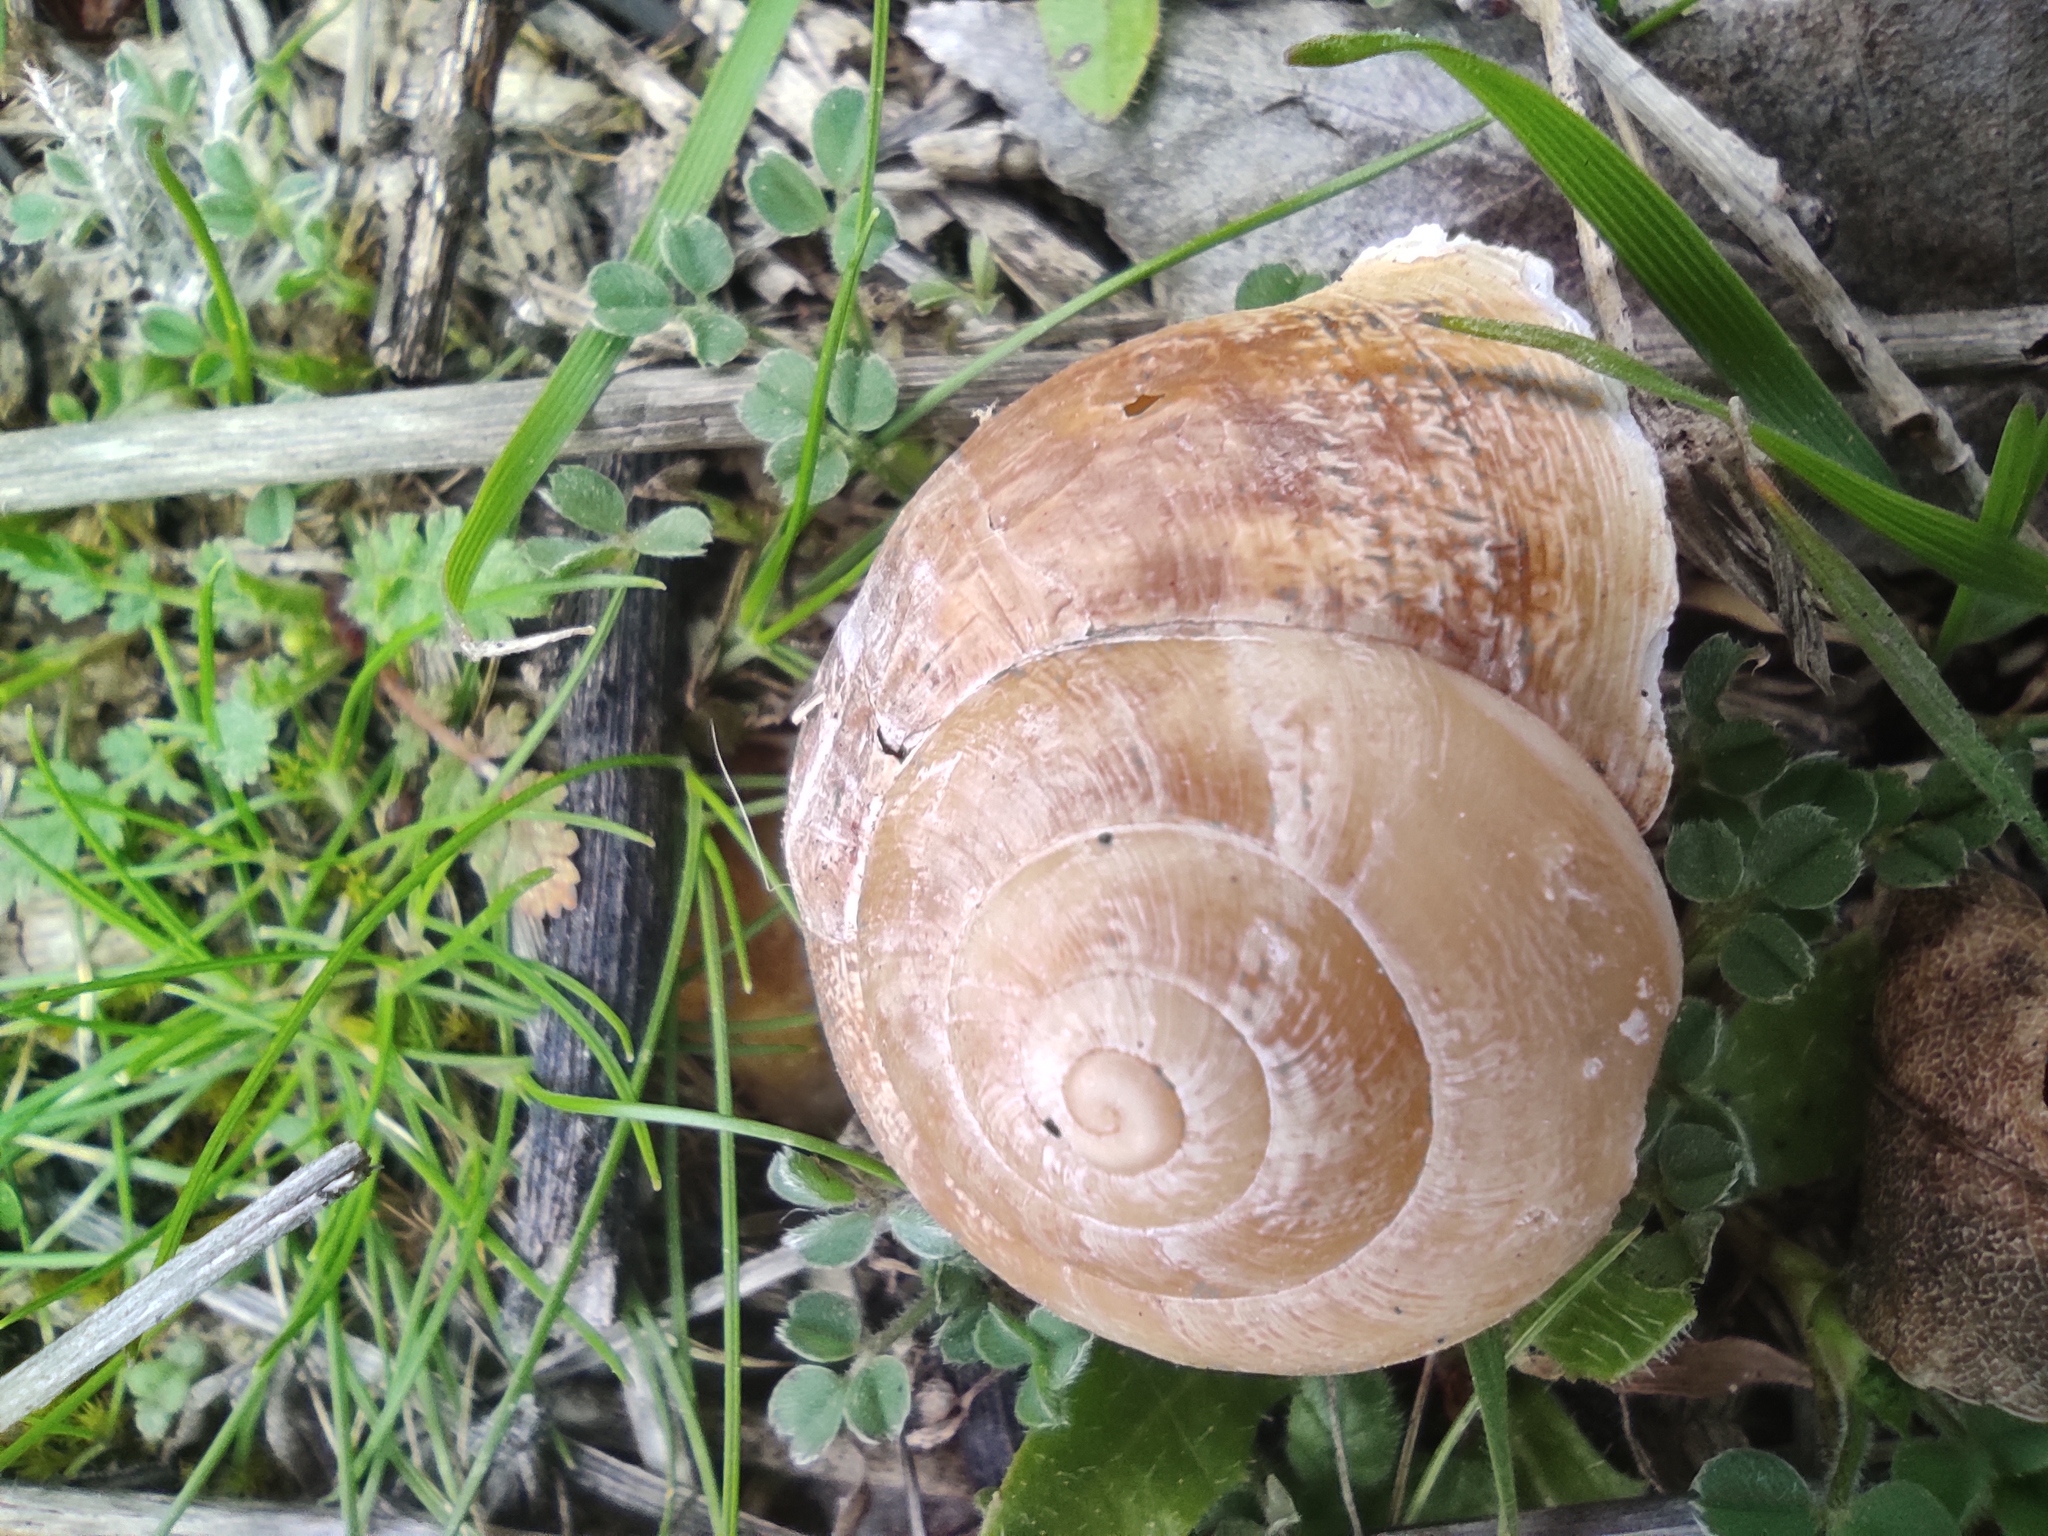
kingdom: Animalia
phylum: Mollusca
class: Gastropoda
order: Stylommatophora
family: Helicidae
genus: Eobania
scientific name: Eobania vermiculata
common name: Chocolateband snail
